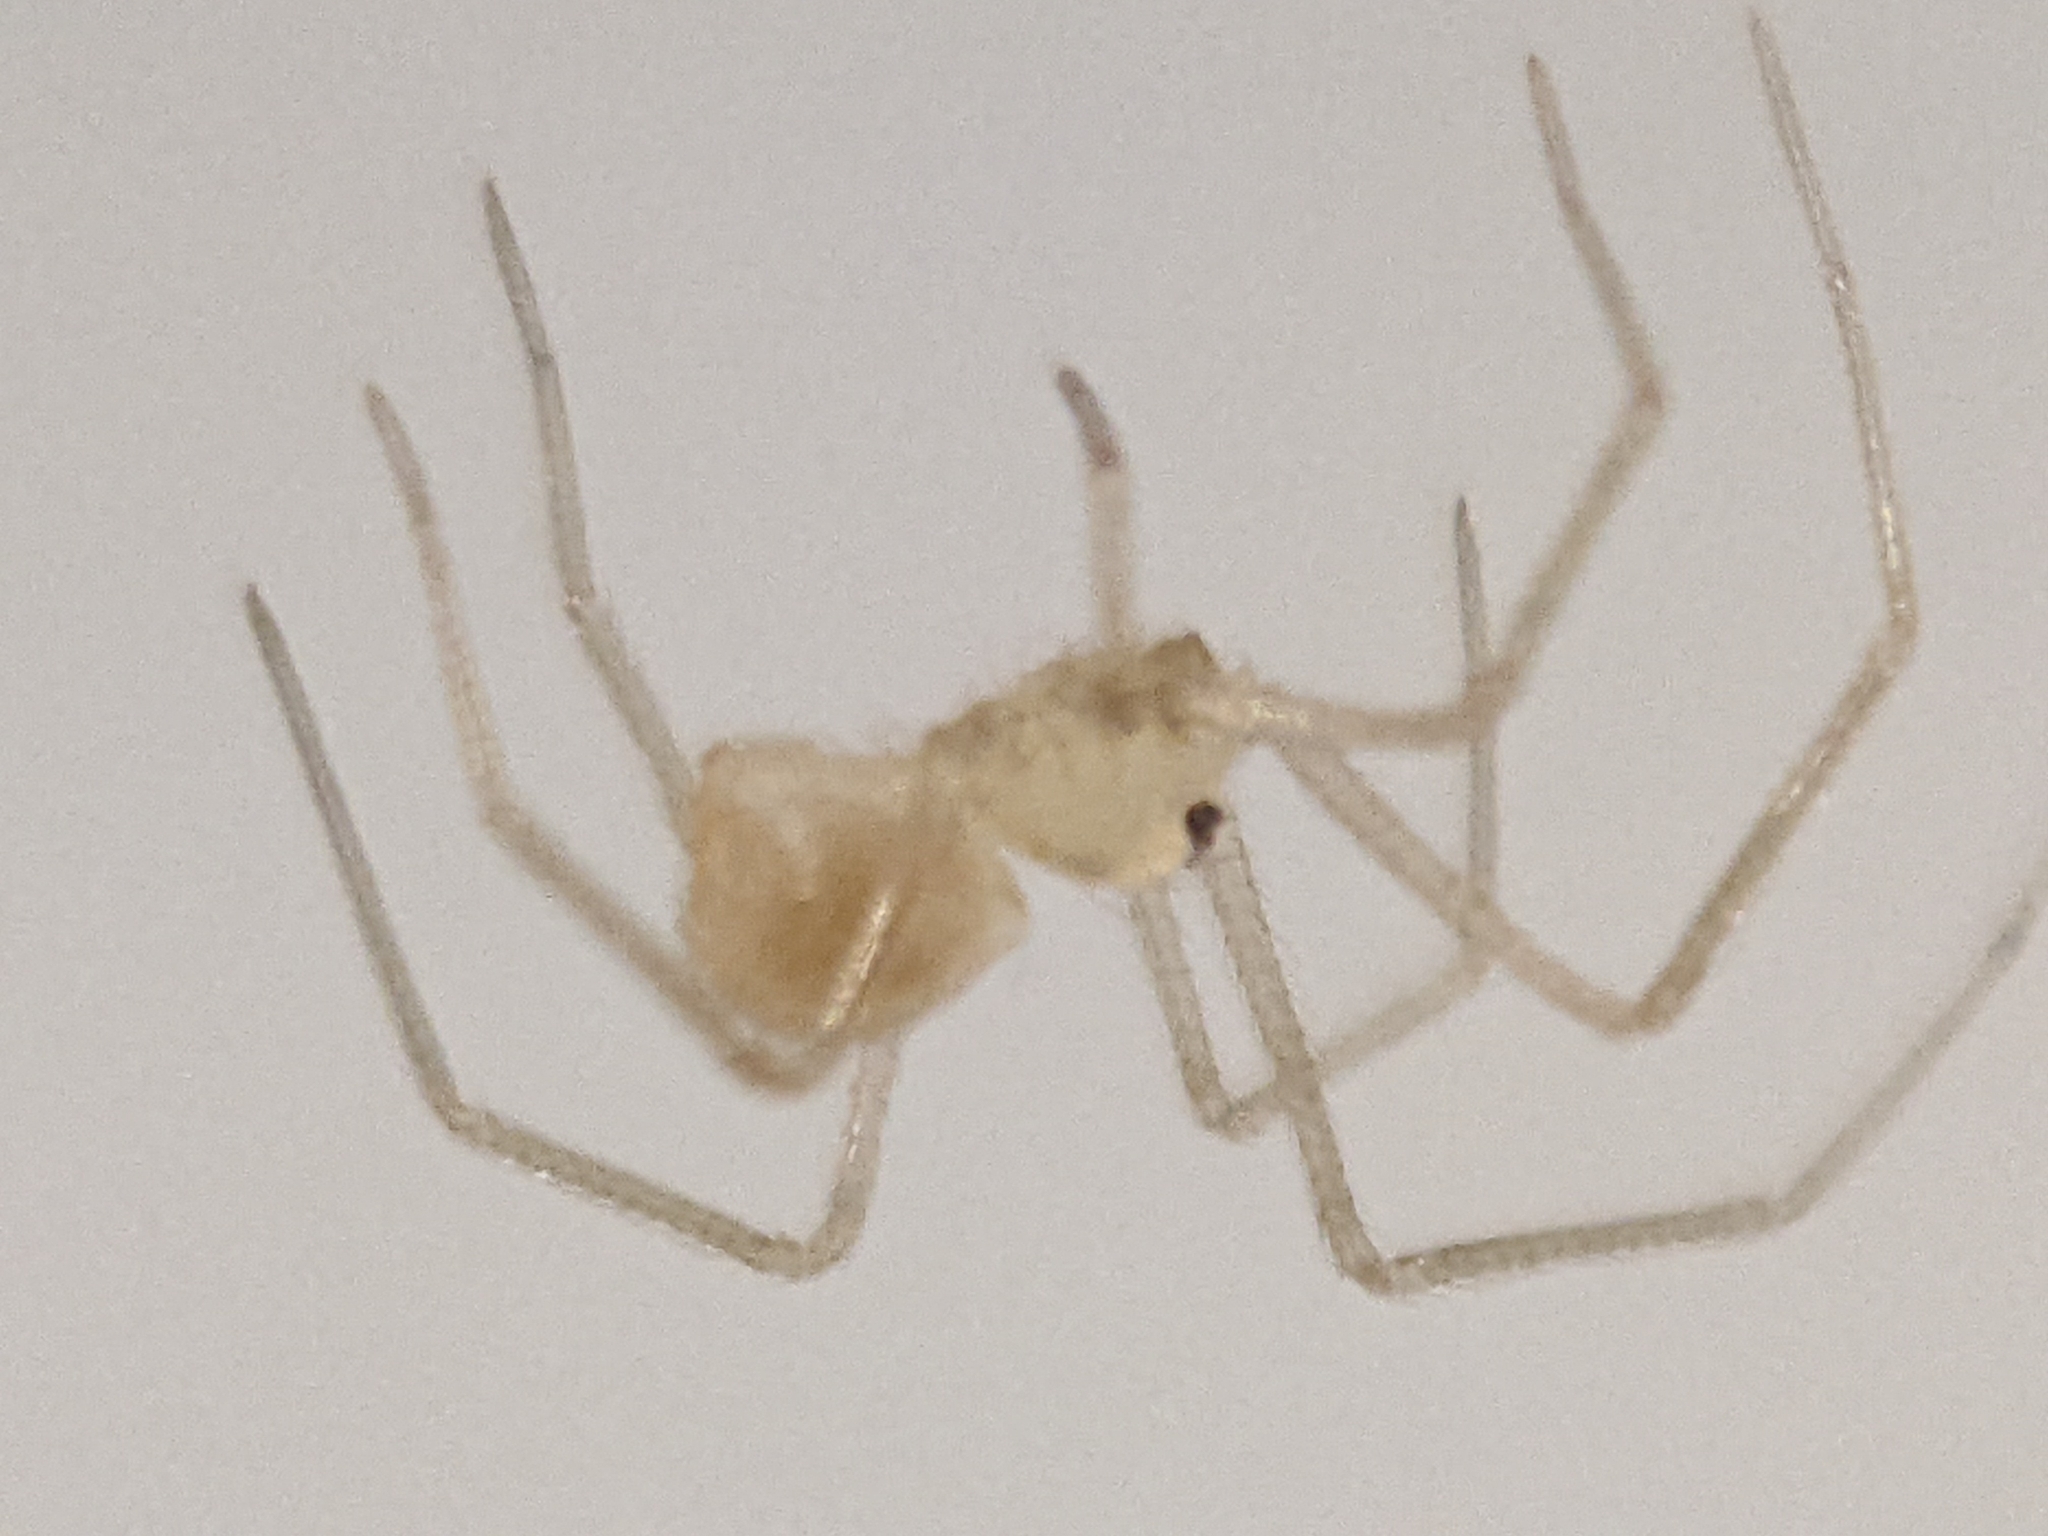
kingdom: Animalia
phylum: Arthropoda
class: Arachnida
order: Araneae
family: Pholcidae
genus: Spermophora
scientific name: Spermophora senoculata
